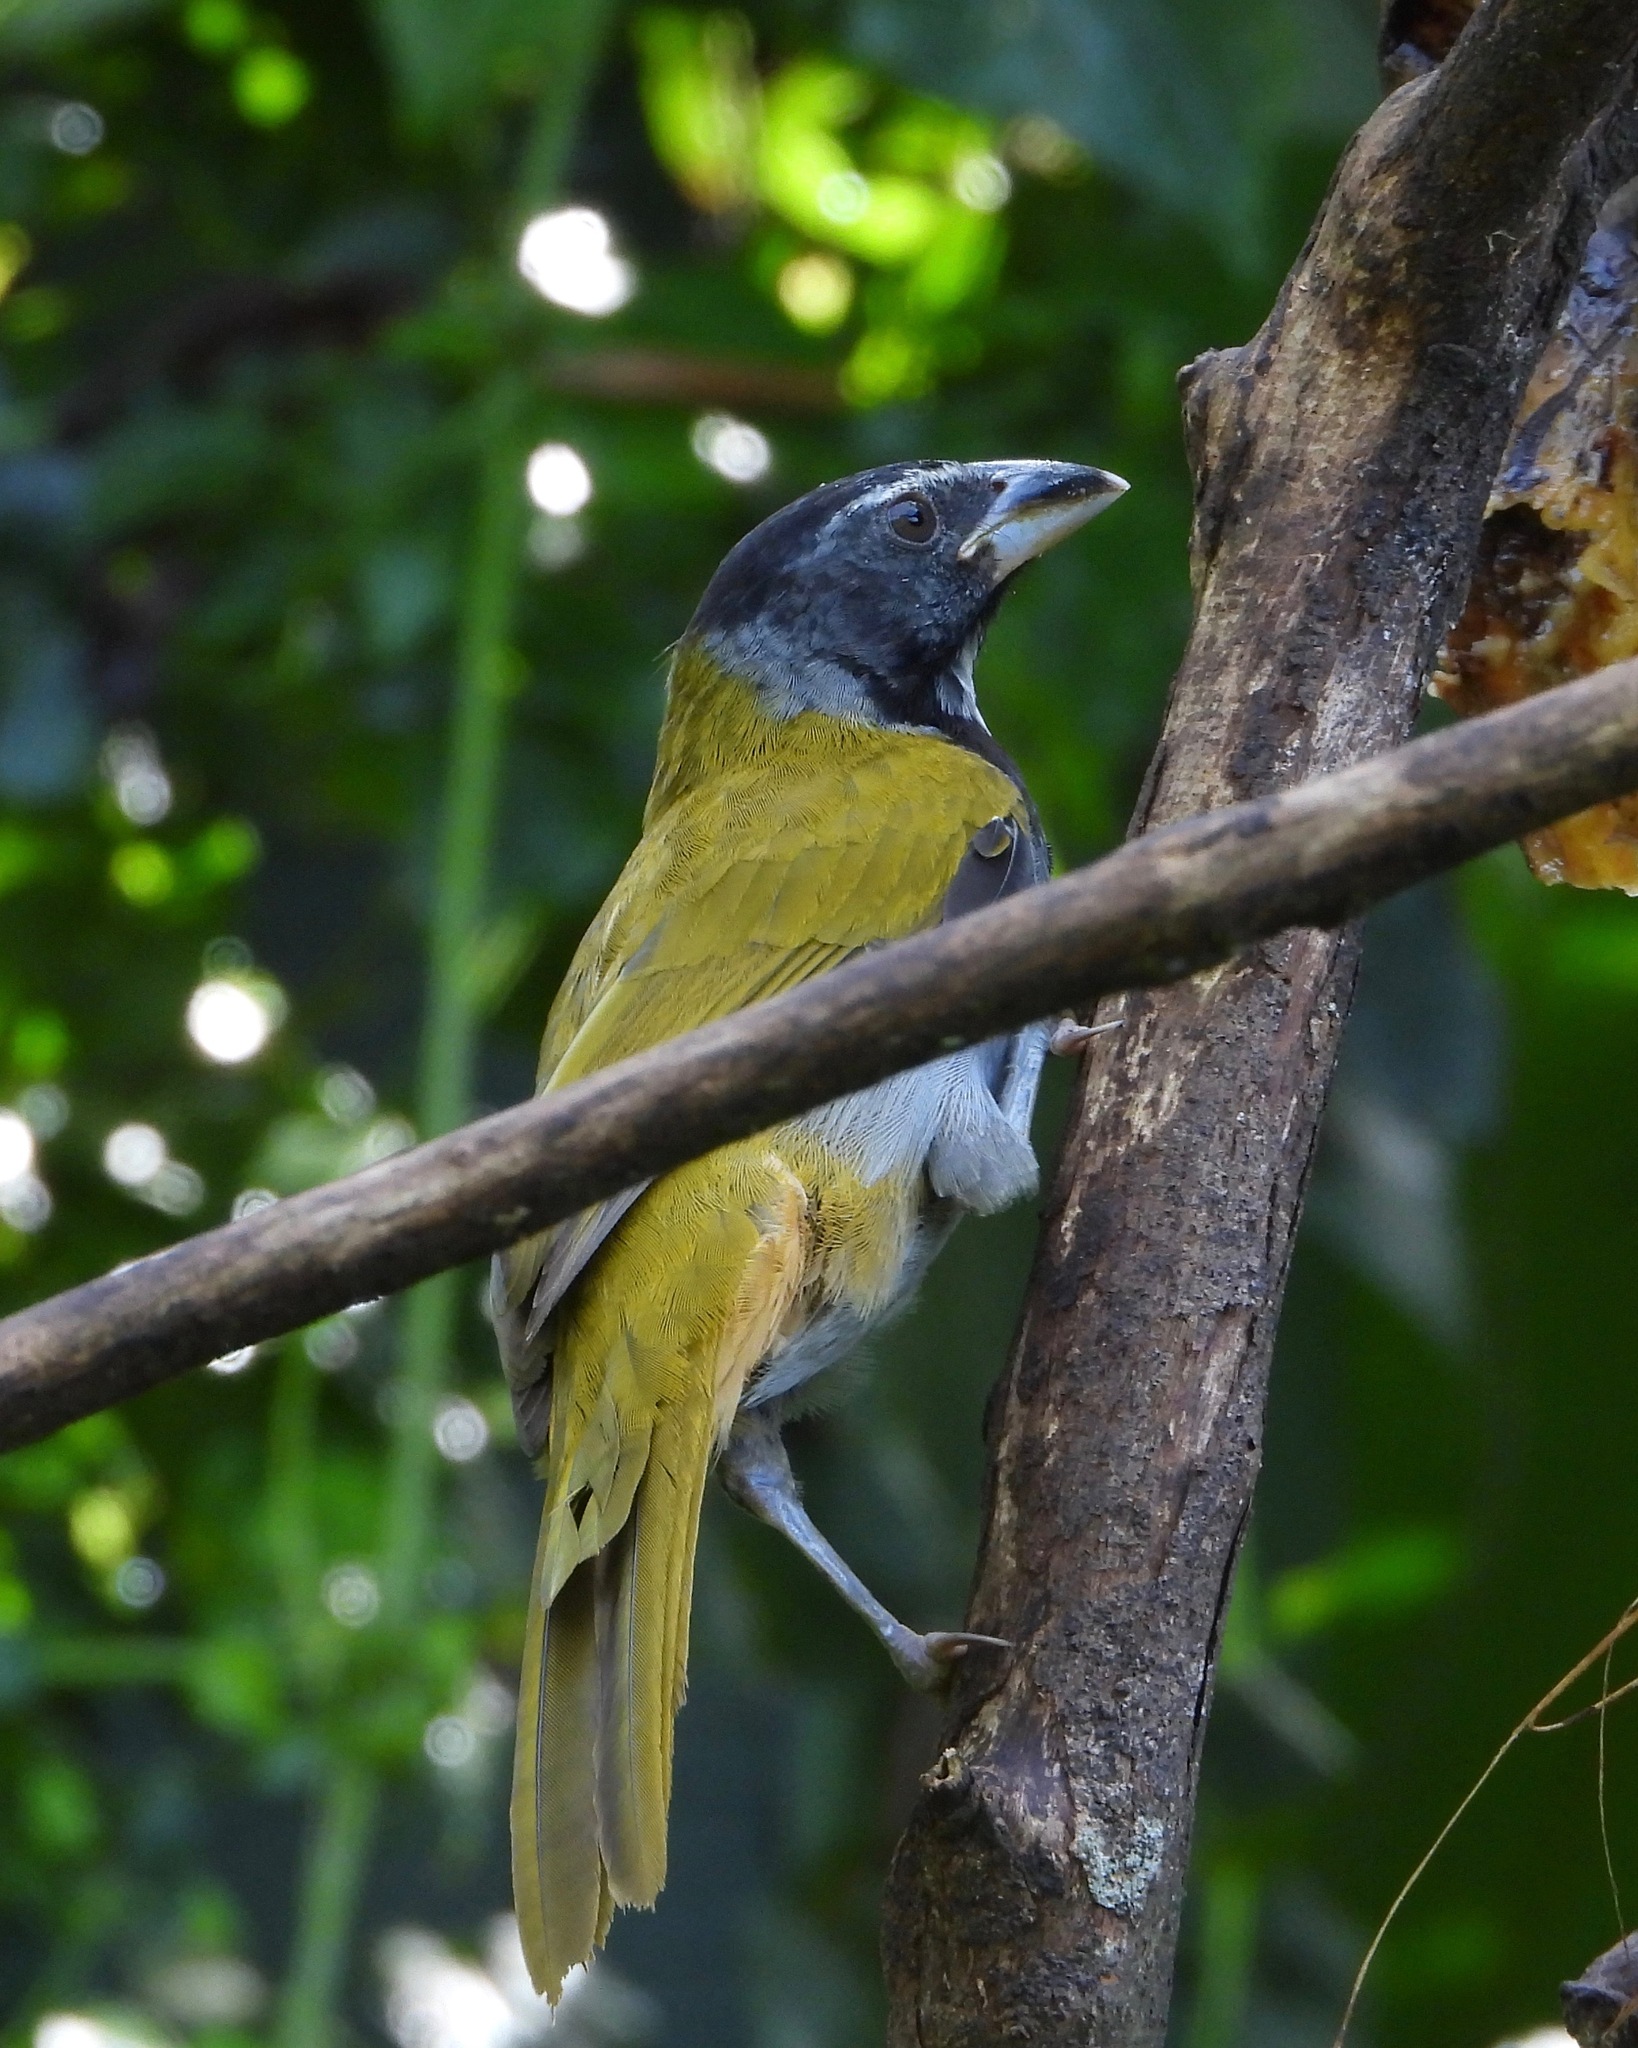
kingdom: Animalia
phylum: Chordata
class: Aves
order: Passeriformes
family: Thraupidae
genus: Saltator
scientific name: Saltator atriceps
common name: Black-headed saltator
